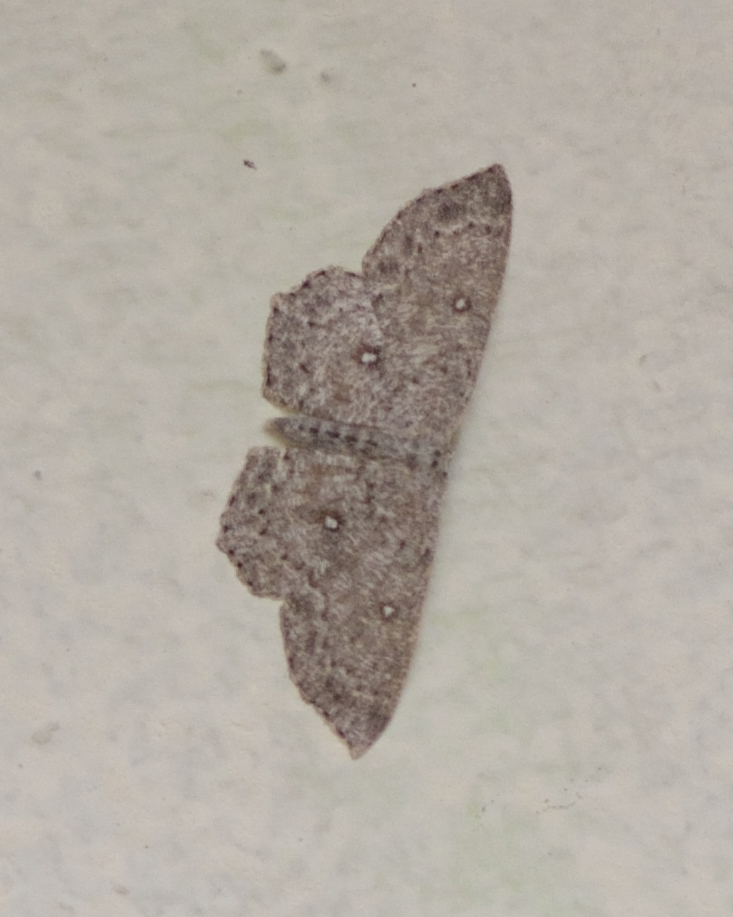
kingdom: Animalia
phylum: Arthropoda
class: Insecta
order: Lepidoptera
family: Geometridae
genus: Cyclophora
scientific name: Cyclophora pendularia
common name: Dingy mocha
